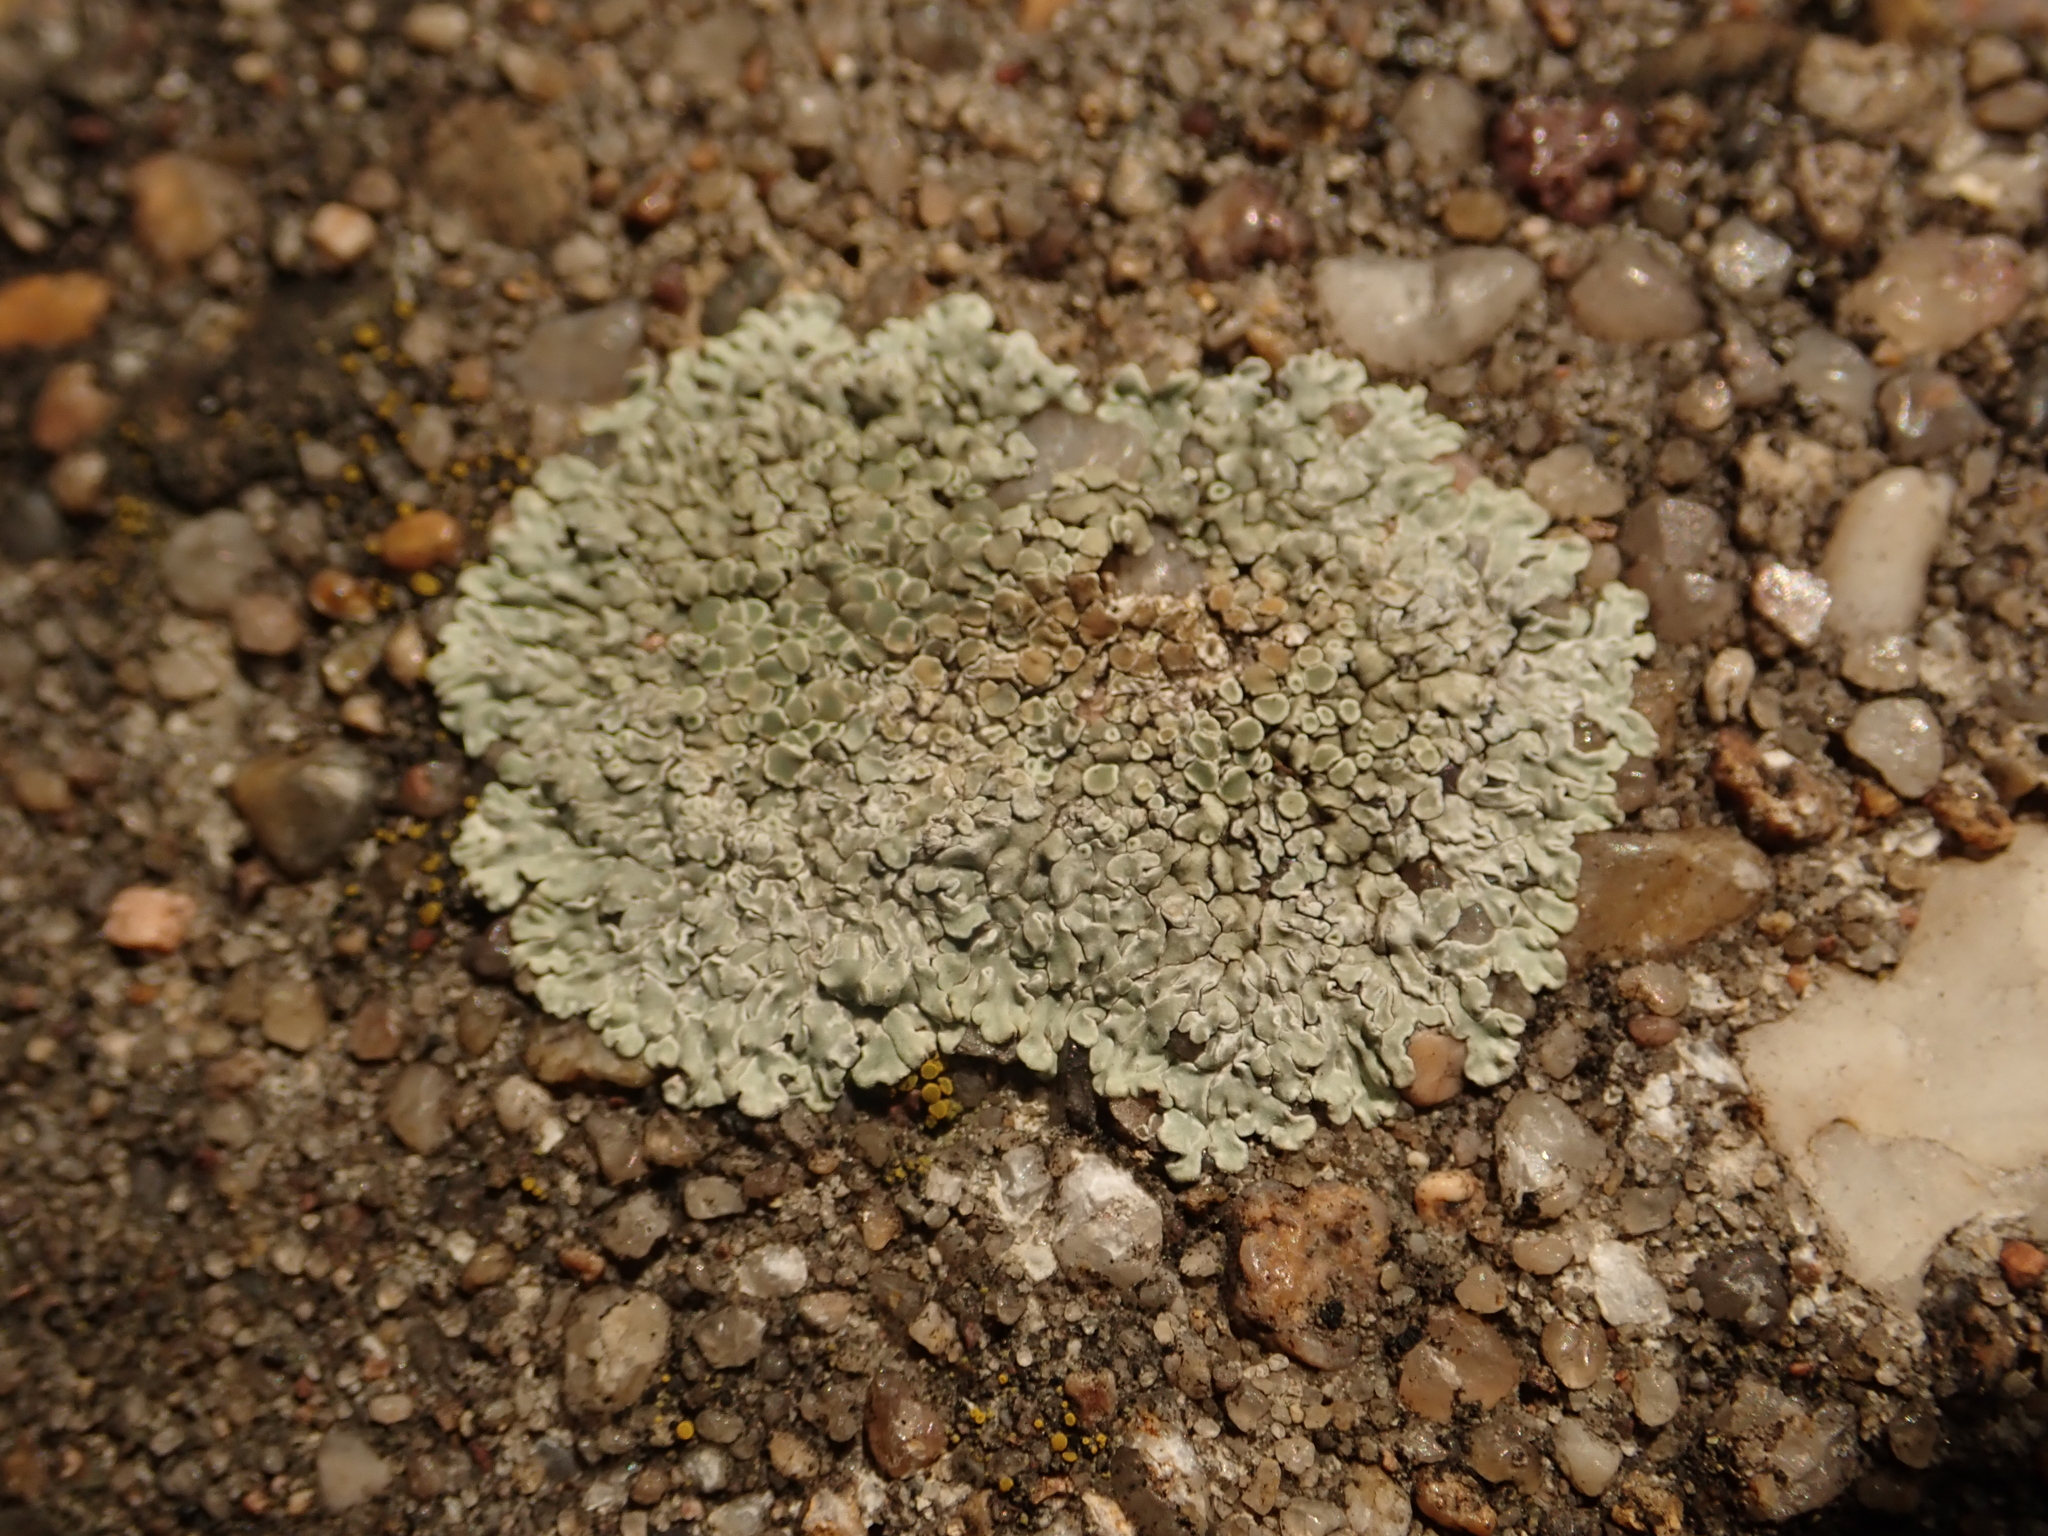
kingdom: Fungi
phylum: Ascomycota
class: Lecanoromycetes
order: Lecanorales
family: Lecanoraceae
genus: Protoparmeliopsis
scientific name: Protoparmeliopsis muralis
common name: Stonewall rim lichen
